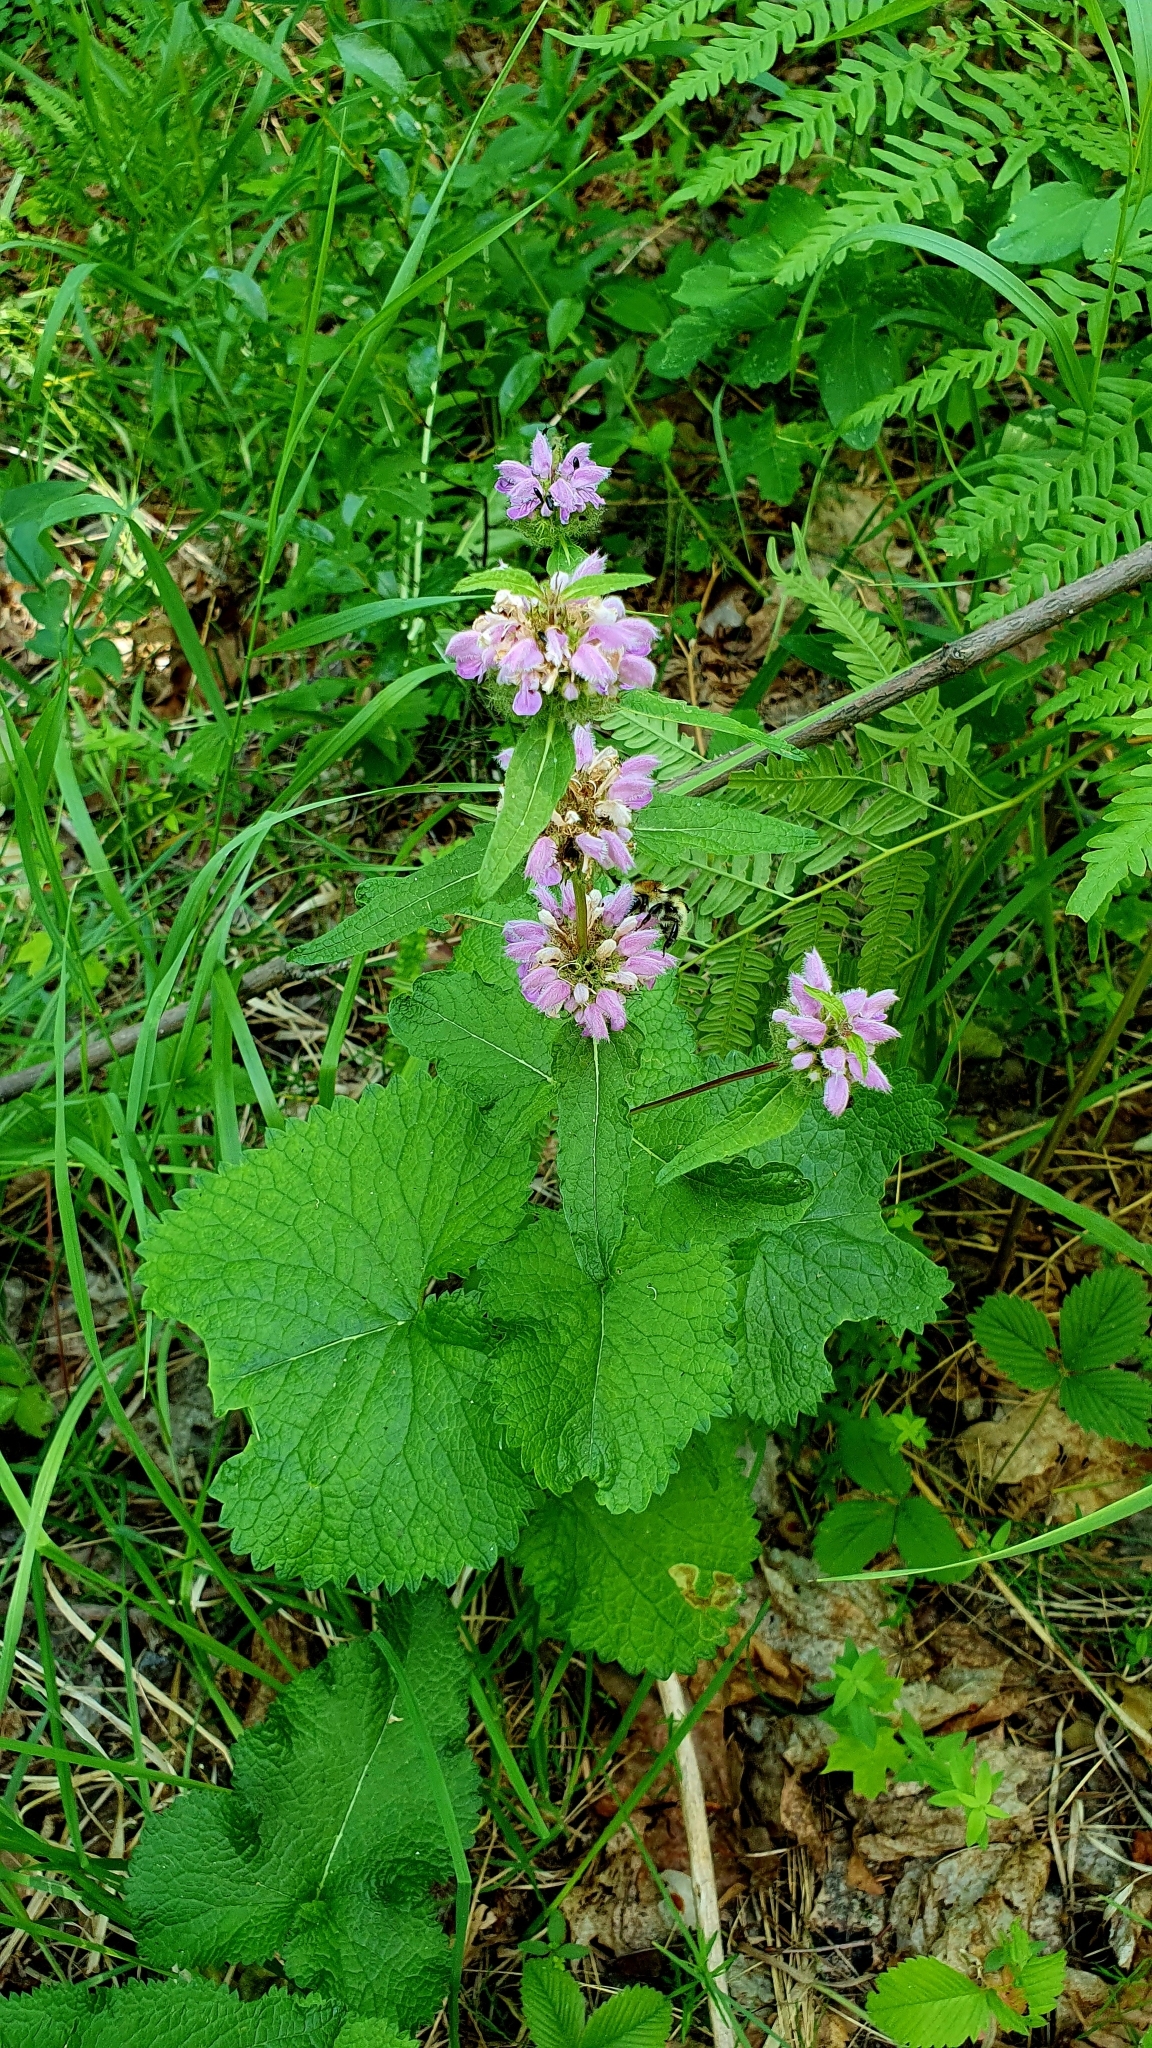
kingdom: Plantae
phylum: Tracheophyta
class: Magnoliopsida
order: Lamiales
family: Lamiaceae
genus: Phlomoides
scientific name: Phlomoides tuberosa
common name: Tuberous jerusalem sage
